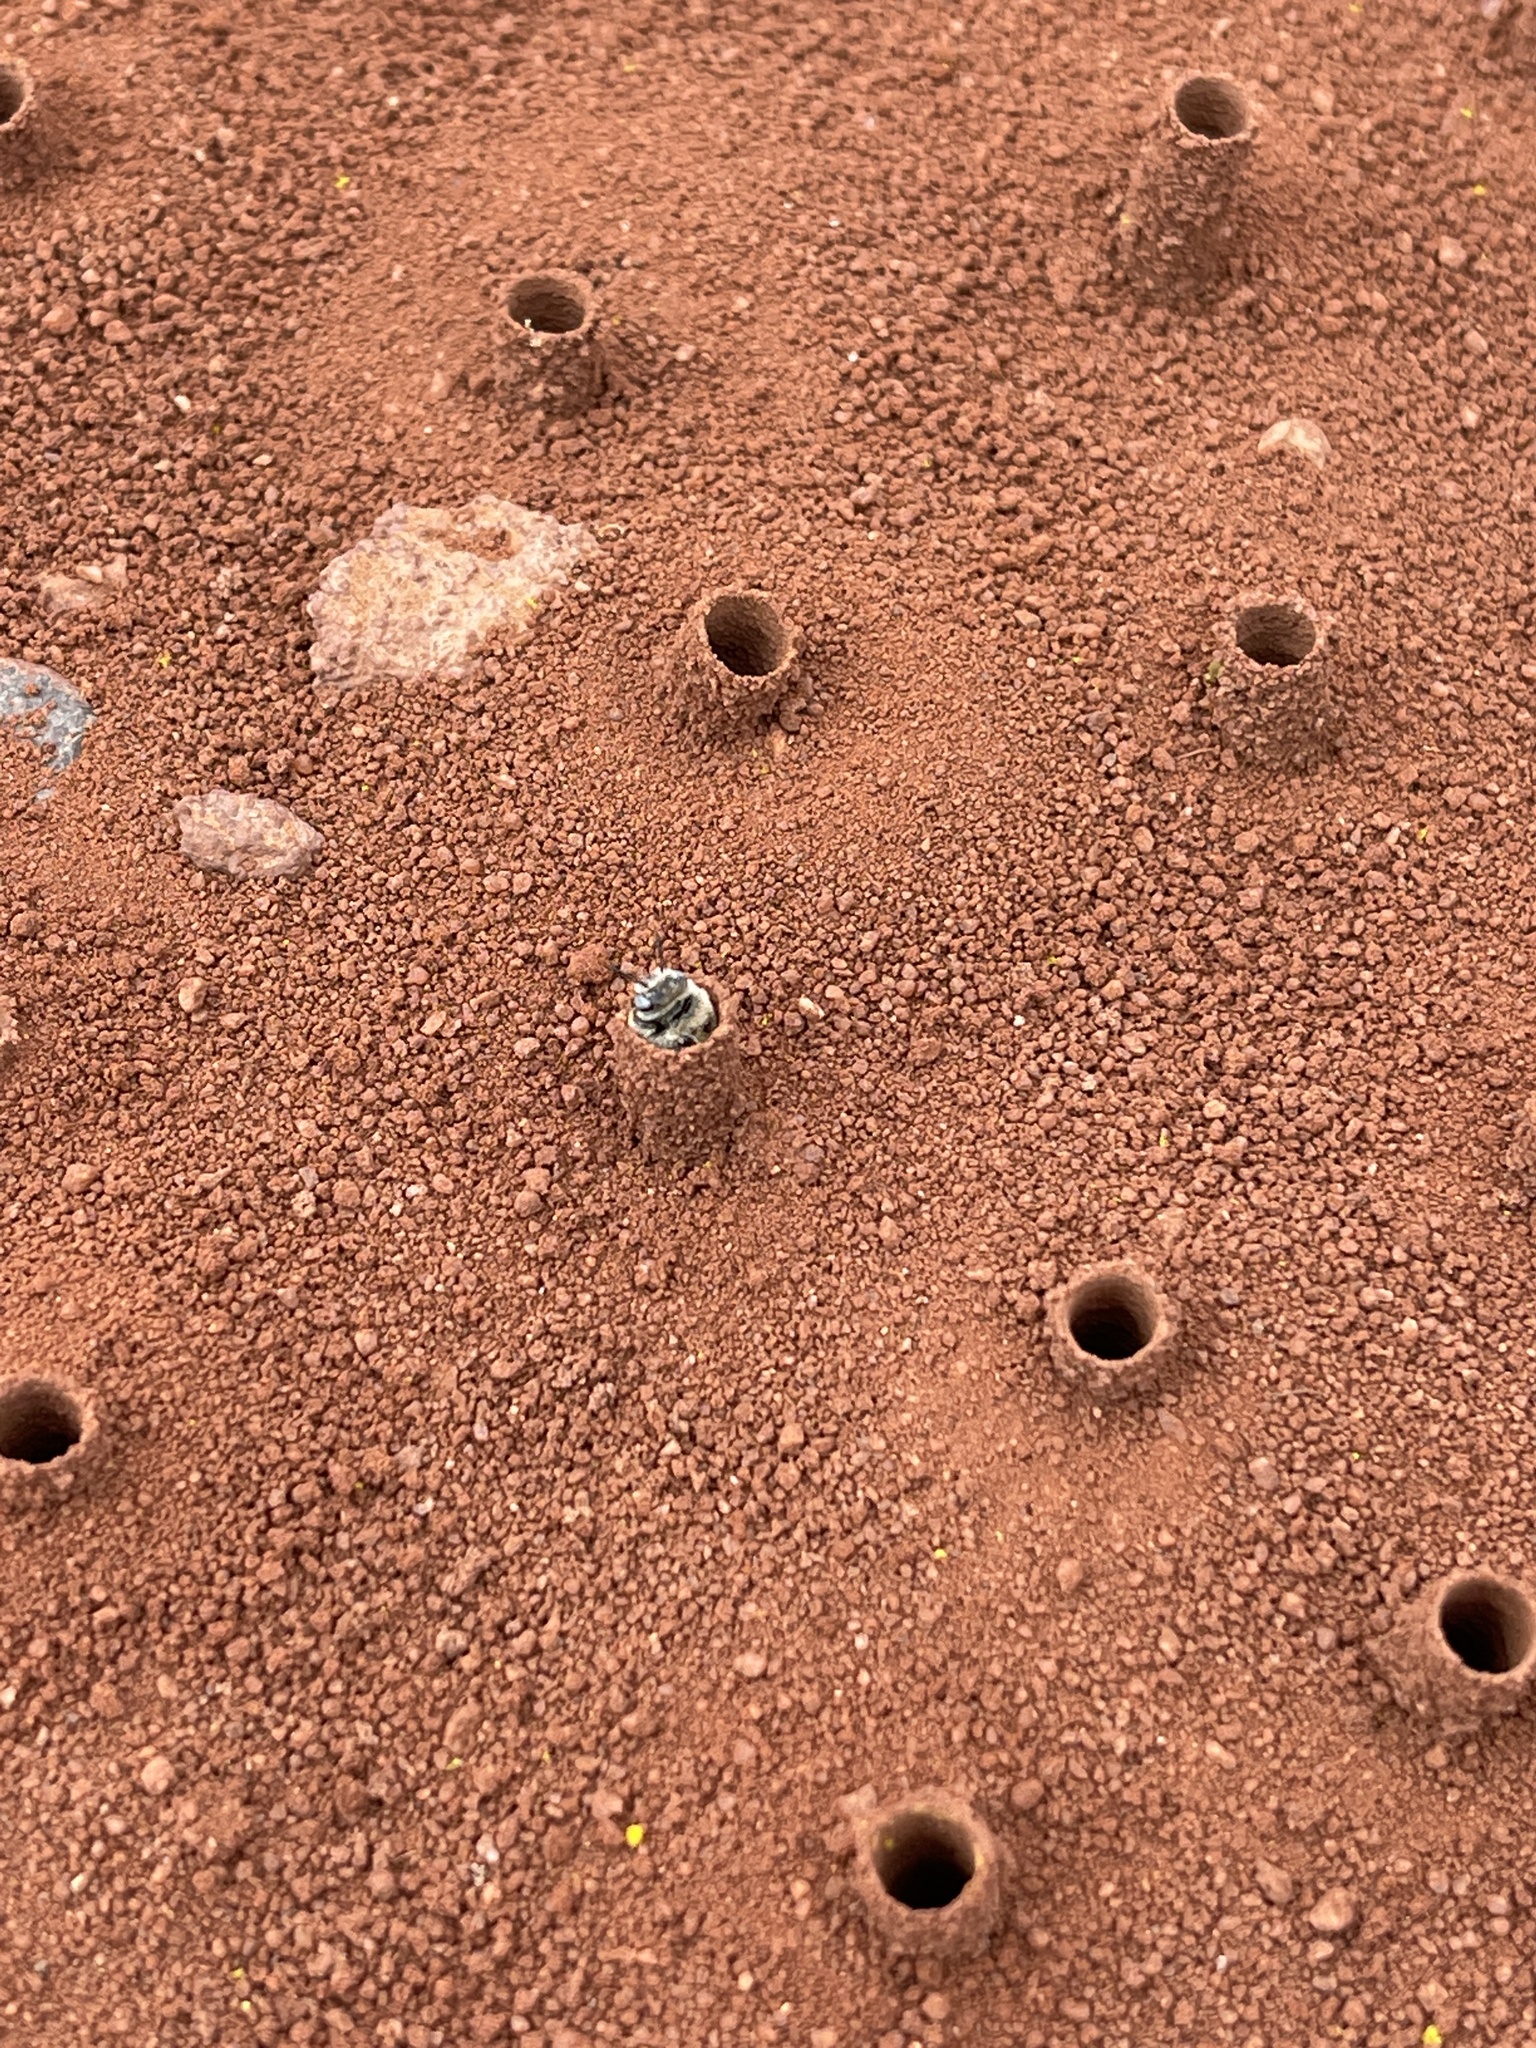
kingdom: Animalia
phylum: Arthropoda
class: Insecta
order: Hymenoptera
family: Apidae
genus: Diadasia
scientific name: Diadasia diminuta
